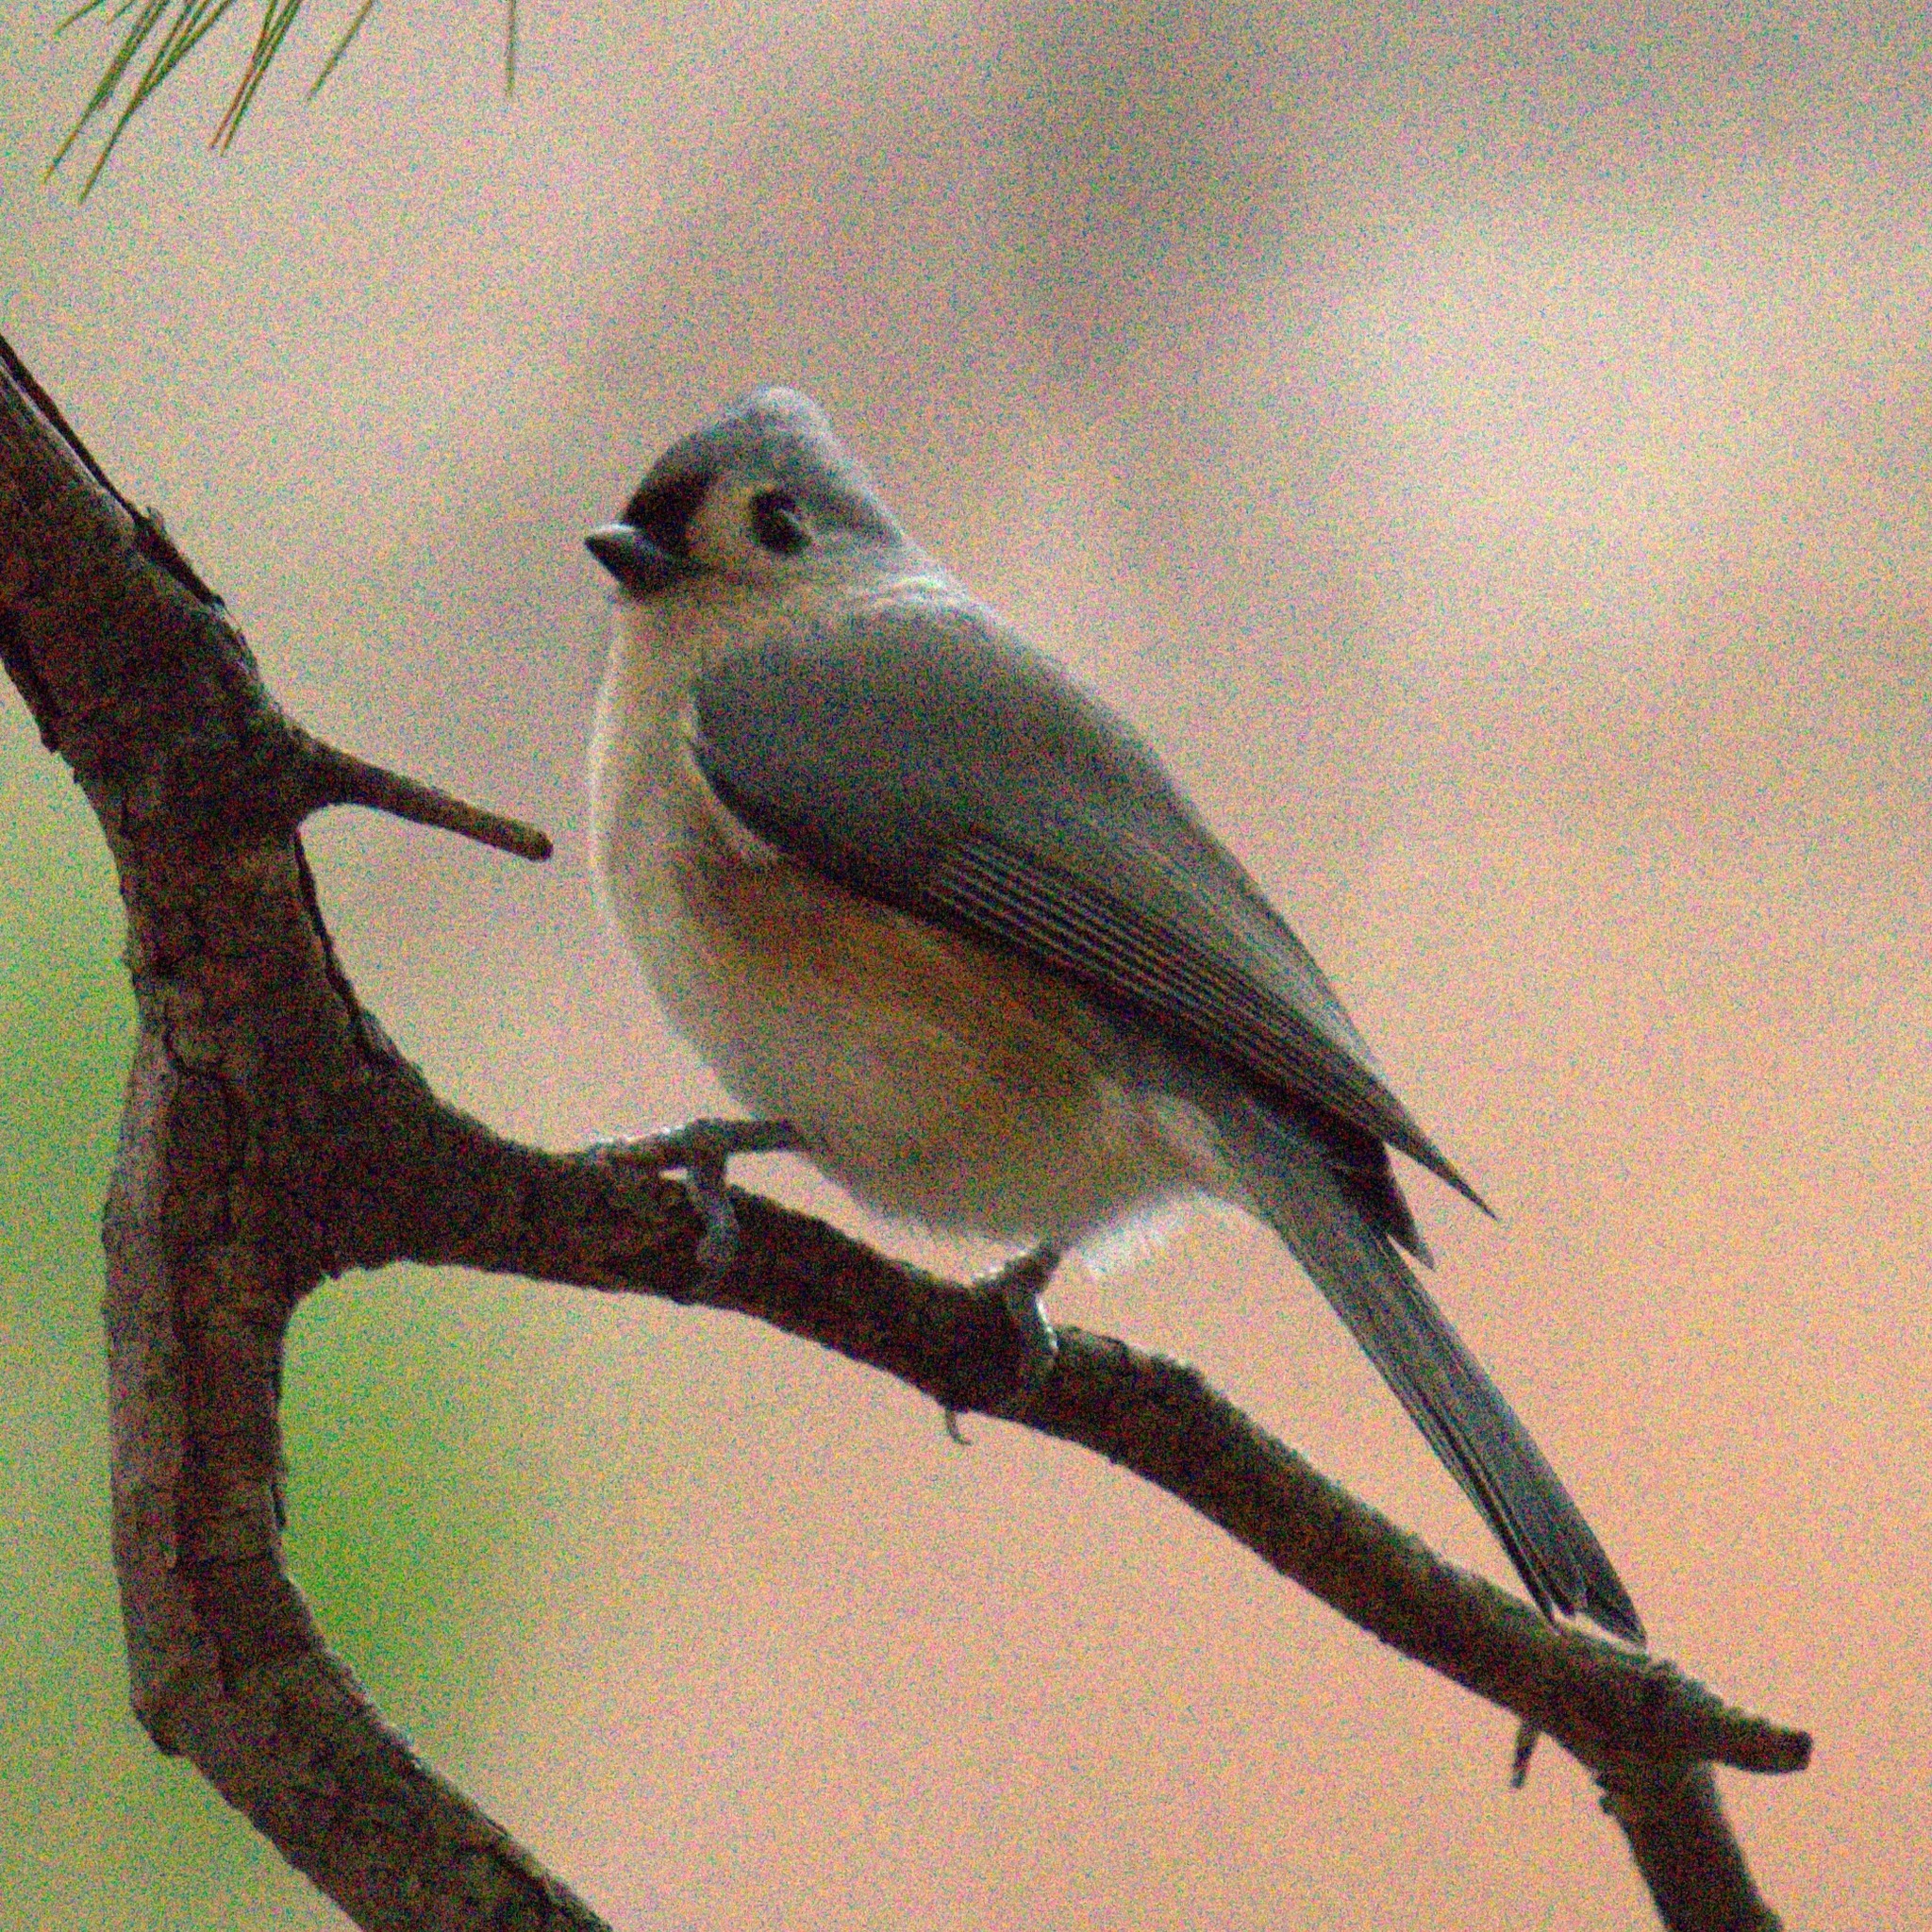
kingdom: Animalia
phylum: Chordata
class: Aves
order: Passeriformes
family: Paridae
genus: Baeolophus
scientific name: Baeolophus bicolor
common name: Tufted titmouse
